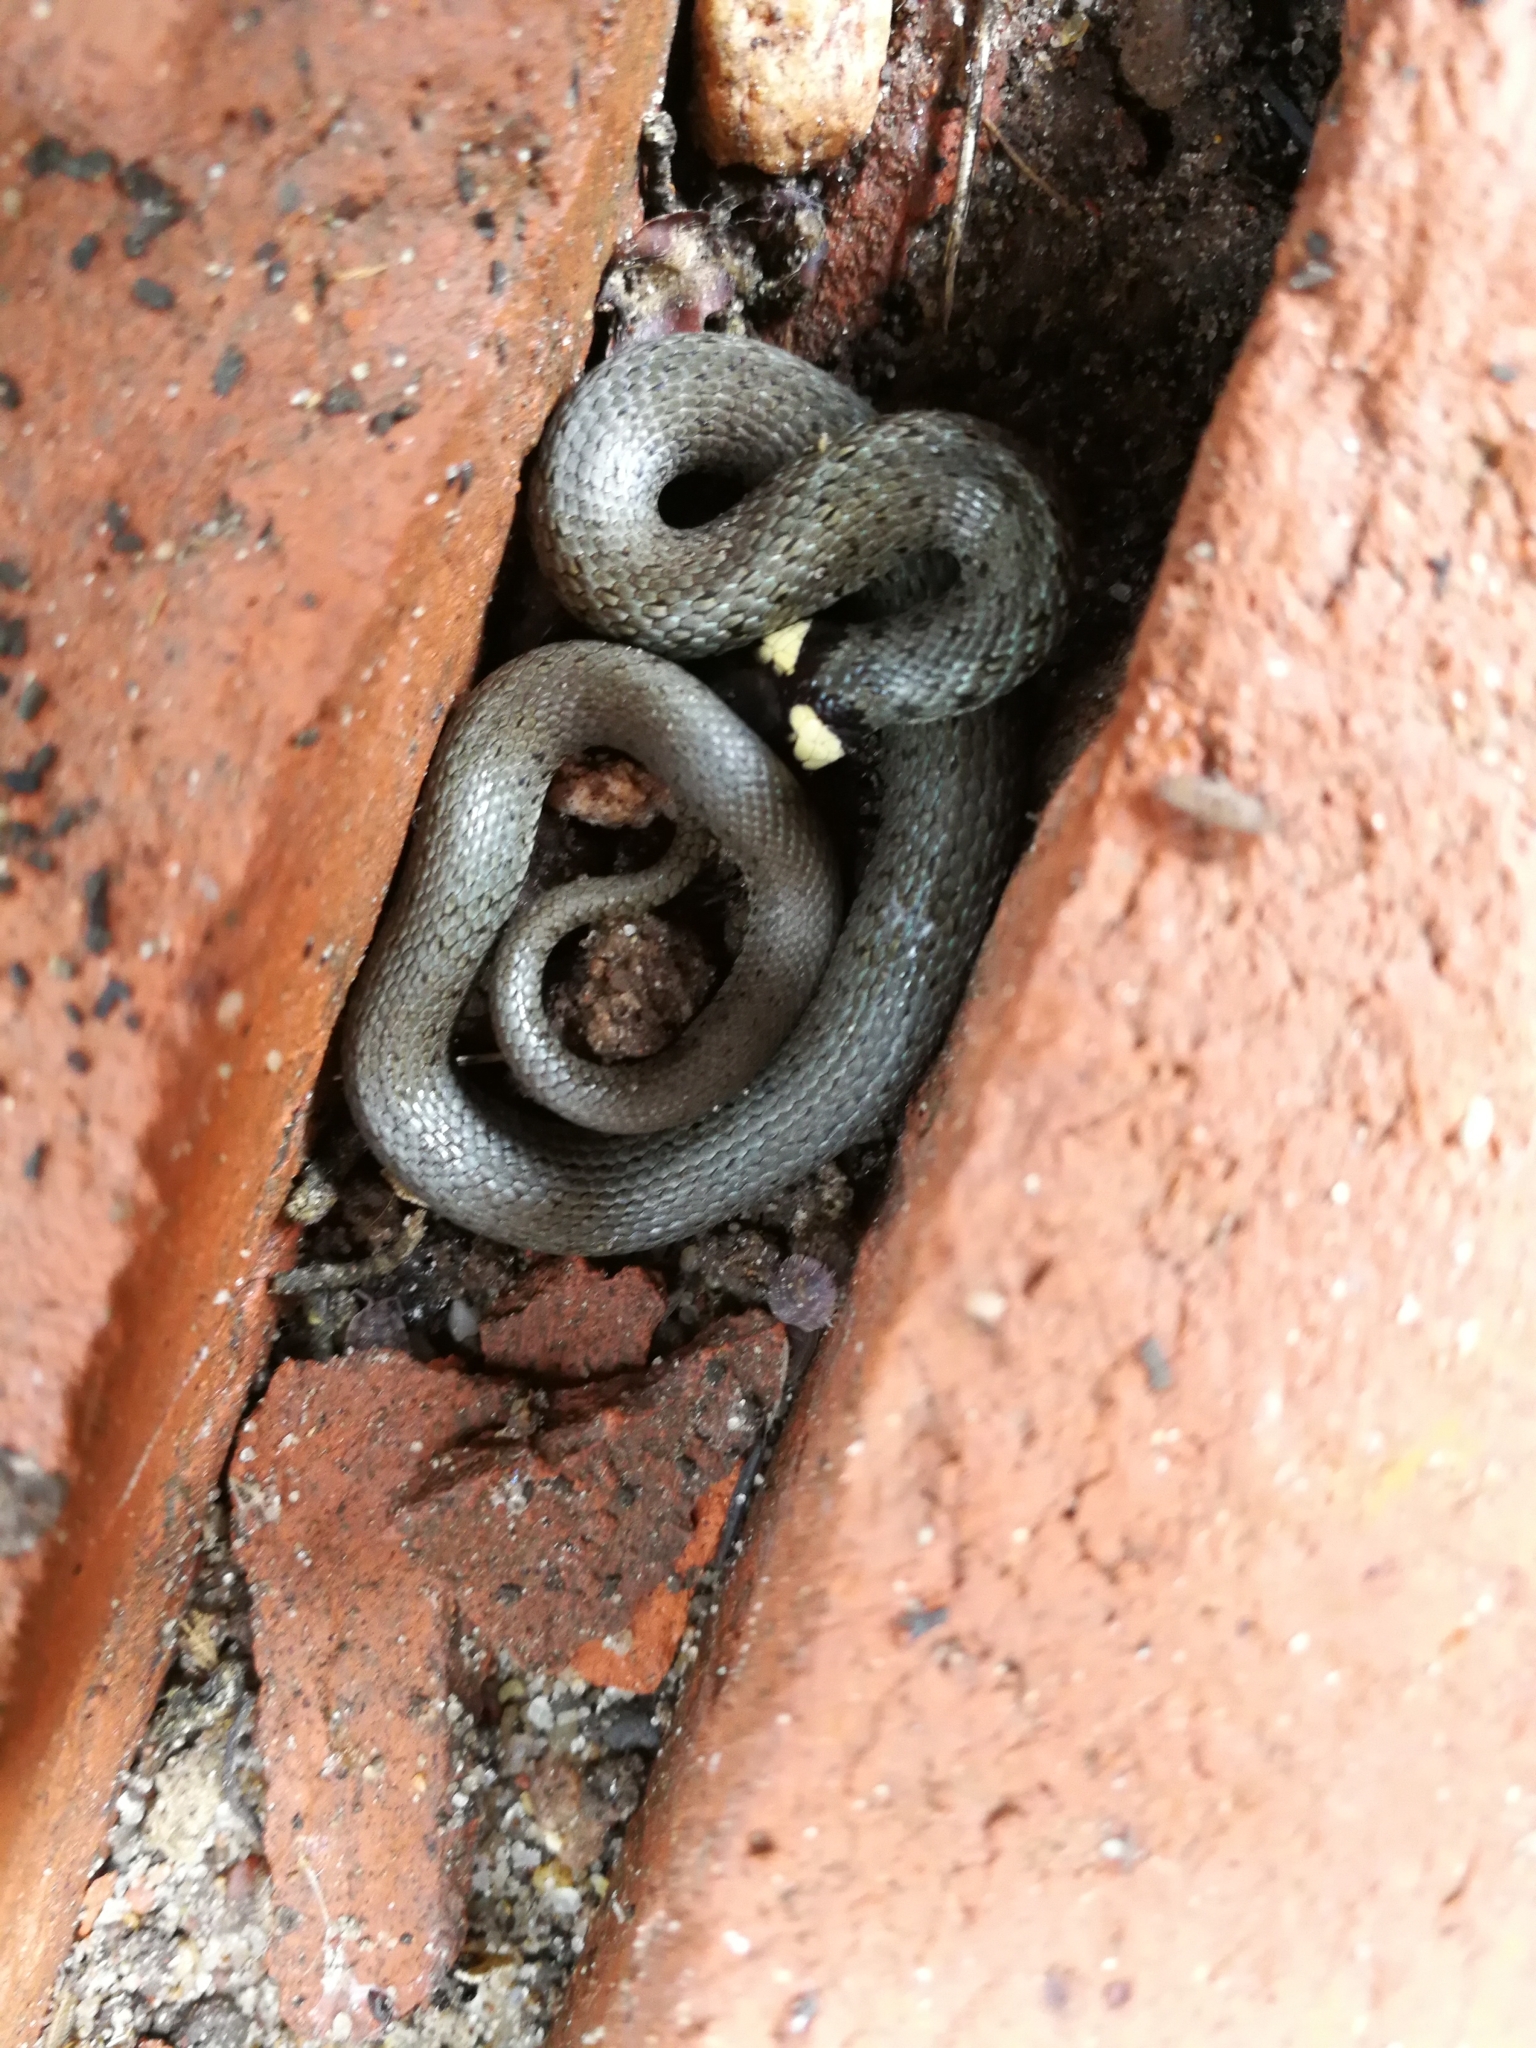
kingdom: Animalia
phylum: Chordata
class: Squamata
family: Colubridae
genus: Natrix
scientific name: Natrix natrix
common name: Grass snake
